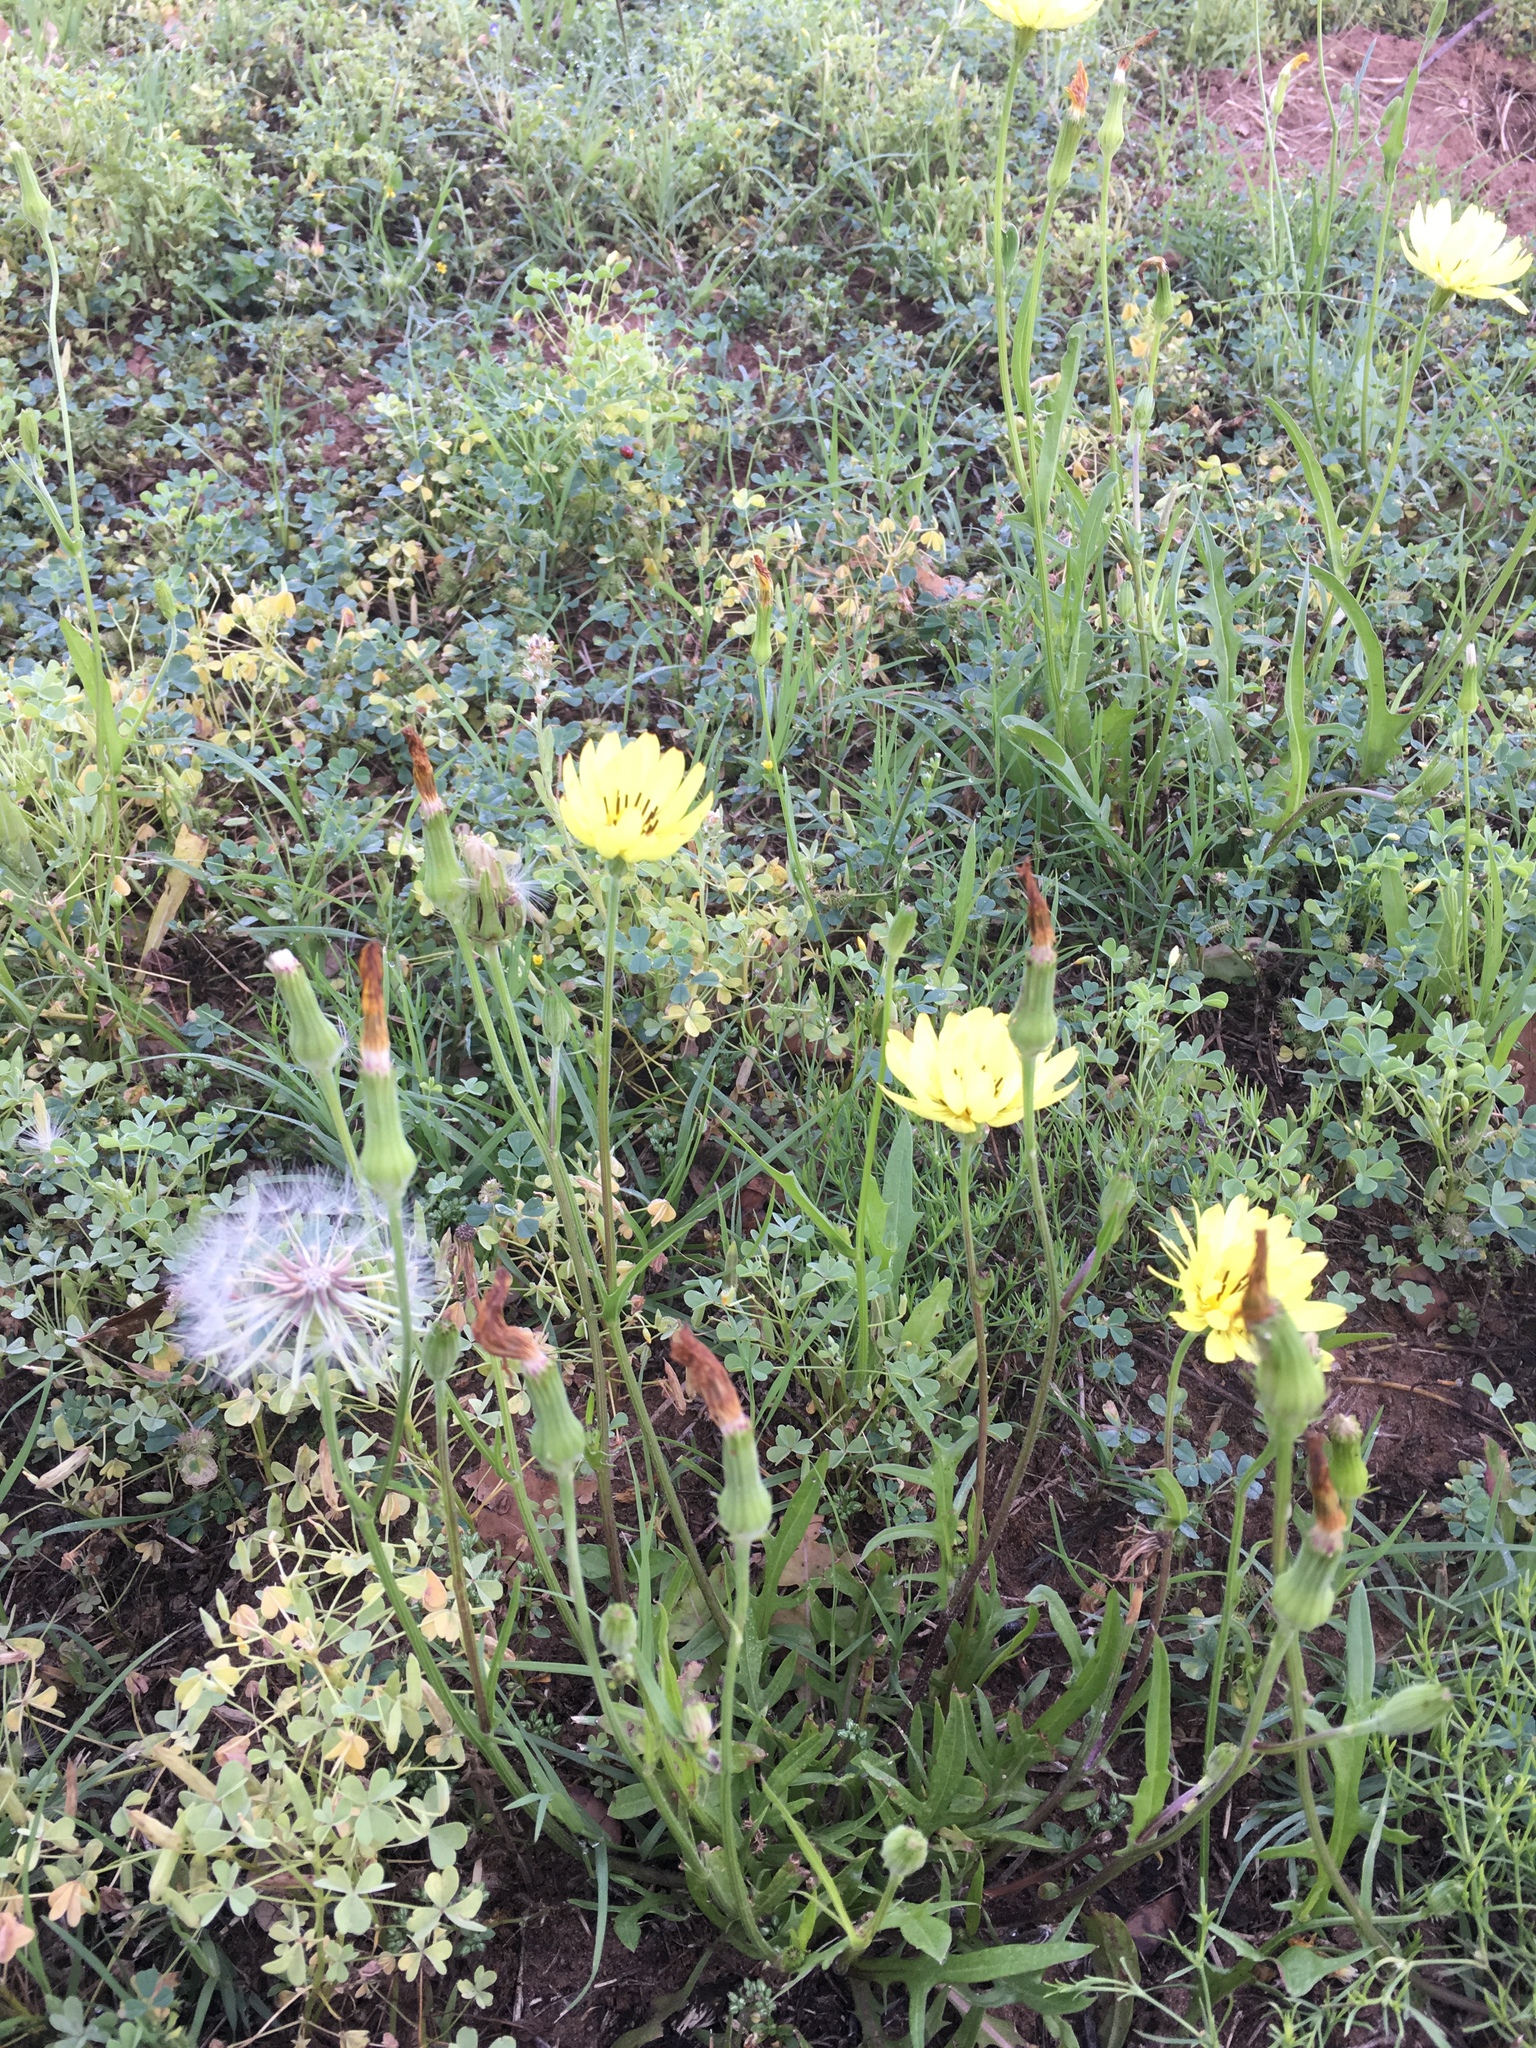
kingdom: Plantae
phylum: Tracheophyta
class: Magnoliopsida
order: Asterales
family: Asteraceae
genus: Pyrrhopappus
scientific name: Pyrrhopappus pauciflorus
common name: Texas false dandelion
